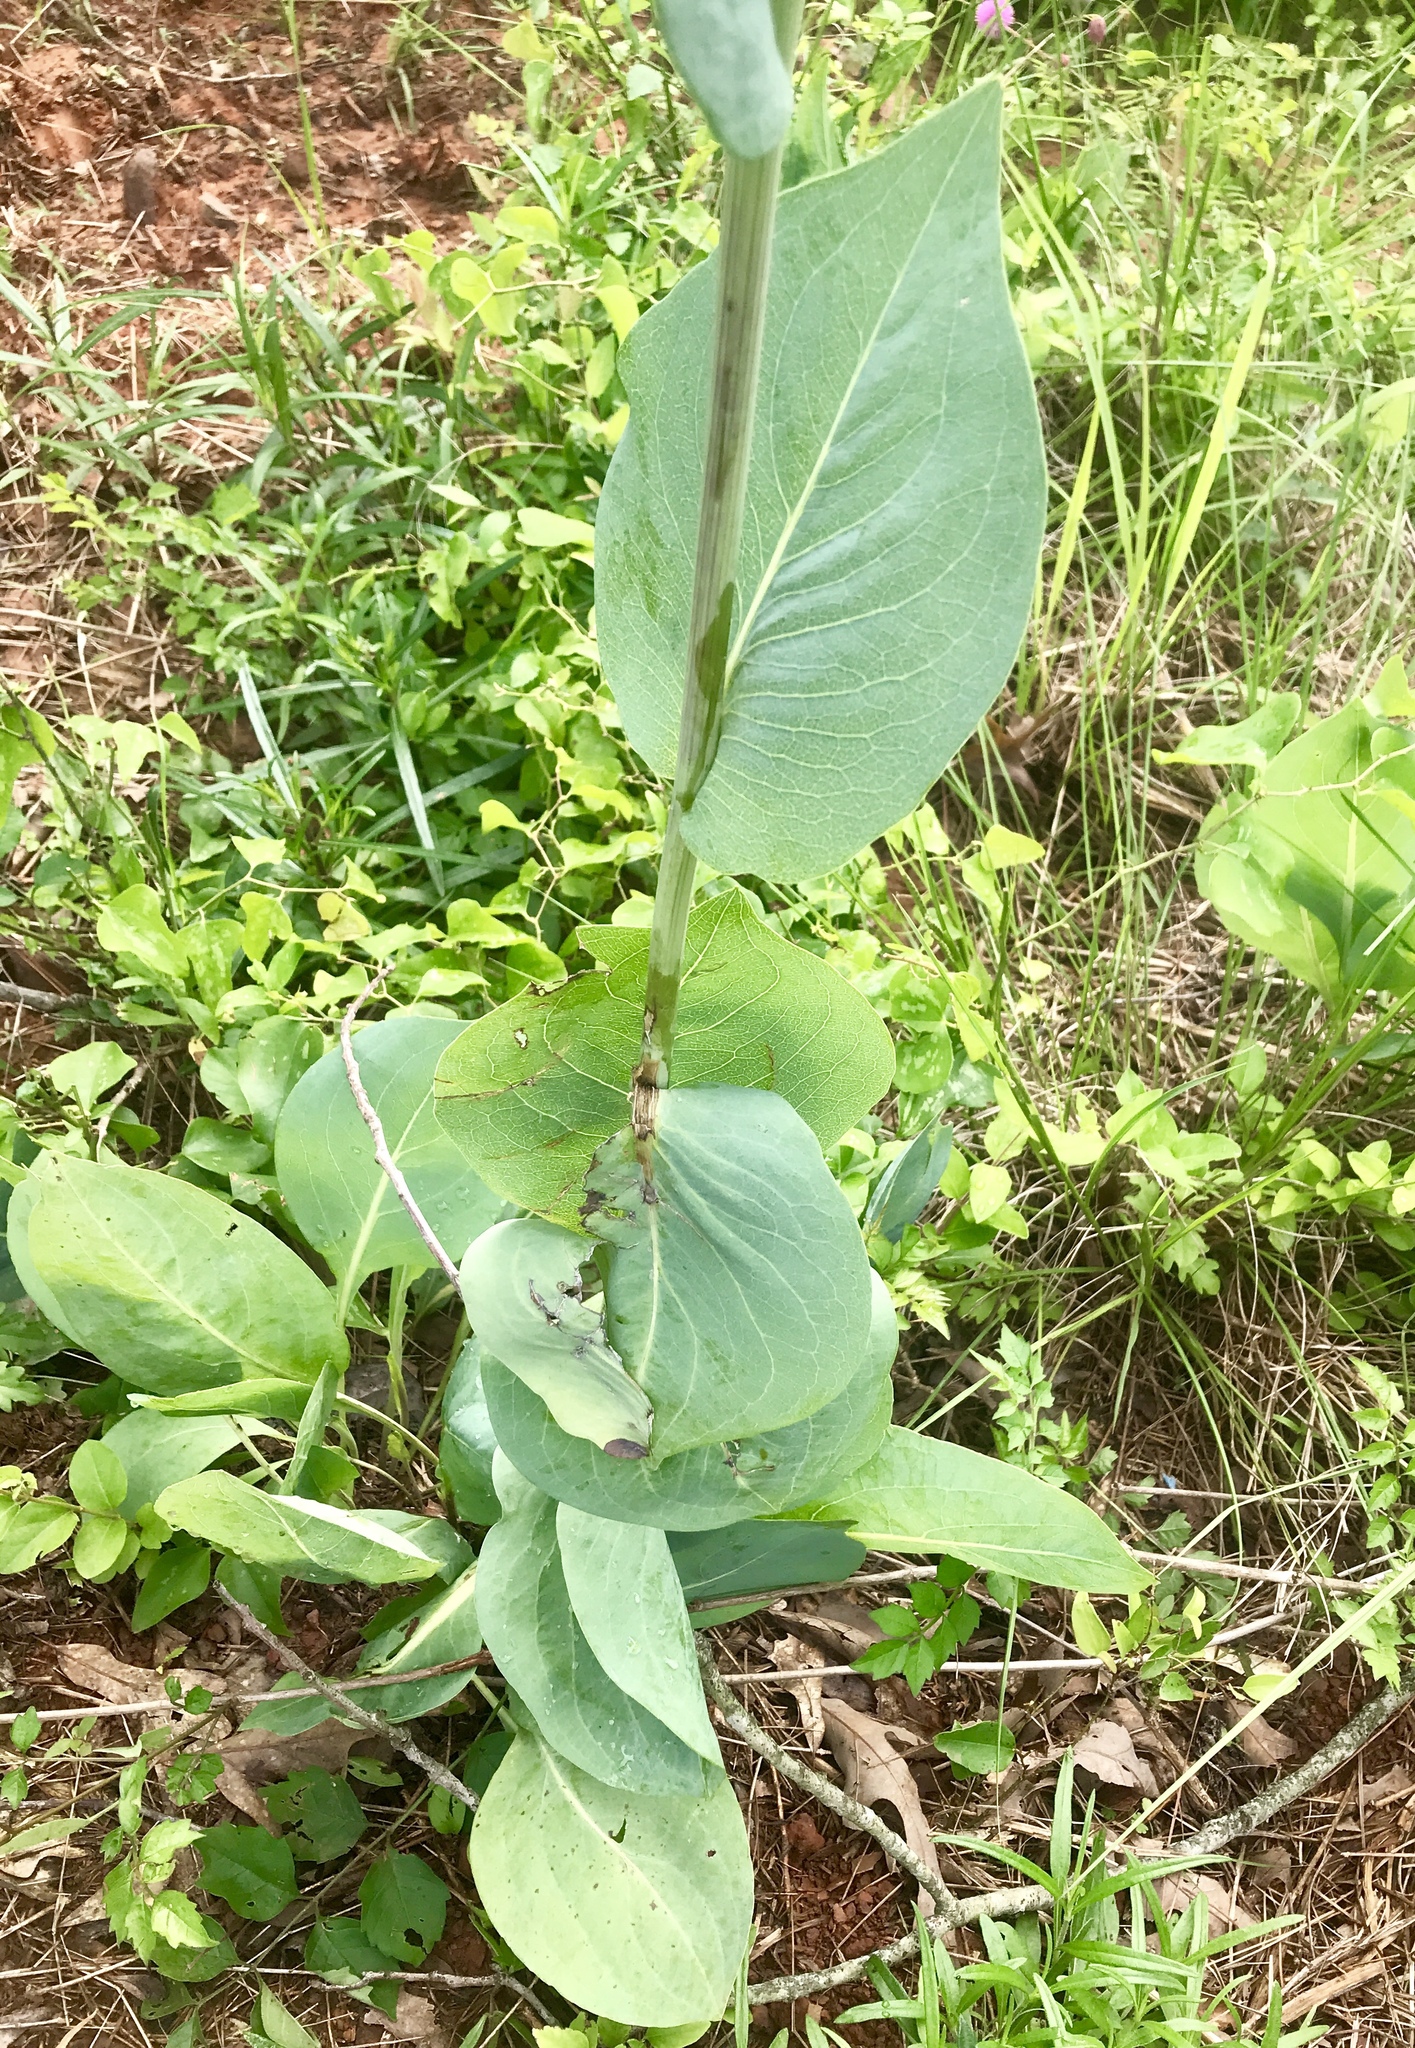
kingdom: Plantae
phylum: Tracheophyta
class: Magnoliopsida
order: Asterales
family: Asteraceae
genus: Rudbeckia
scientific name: Rudbeckia maxima
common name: Cabbage coneflower
